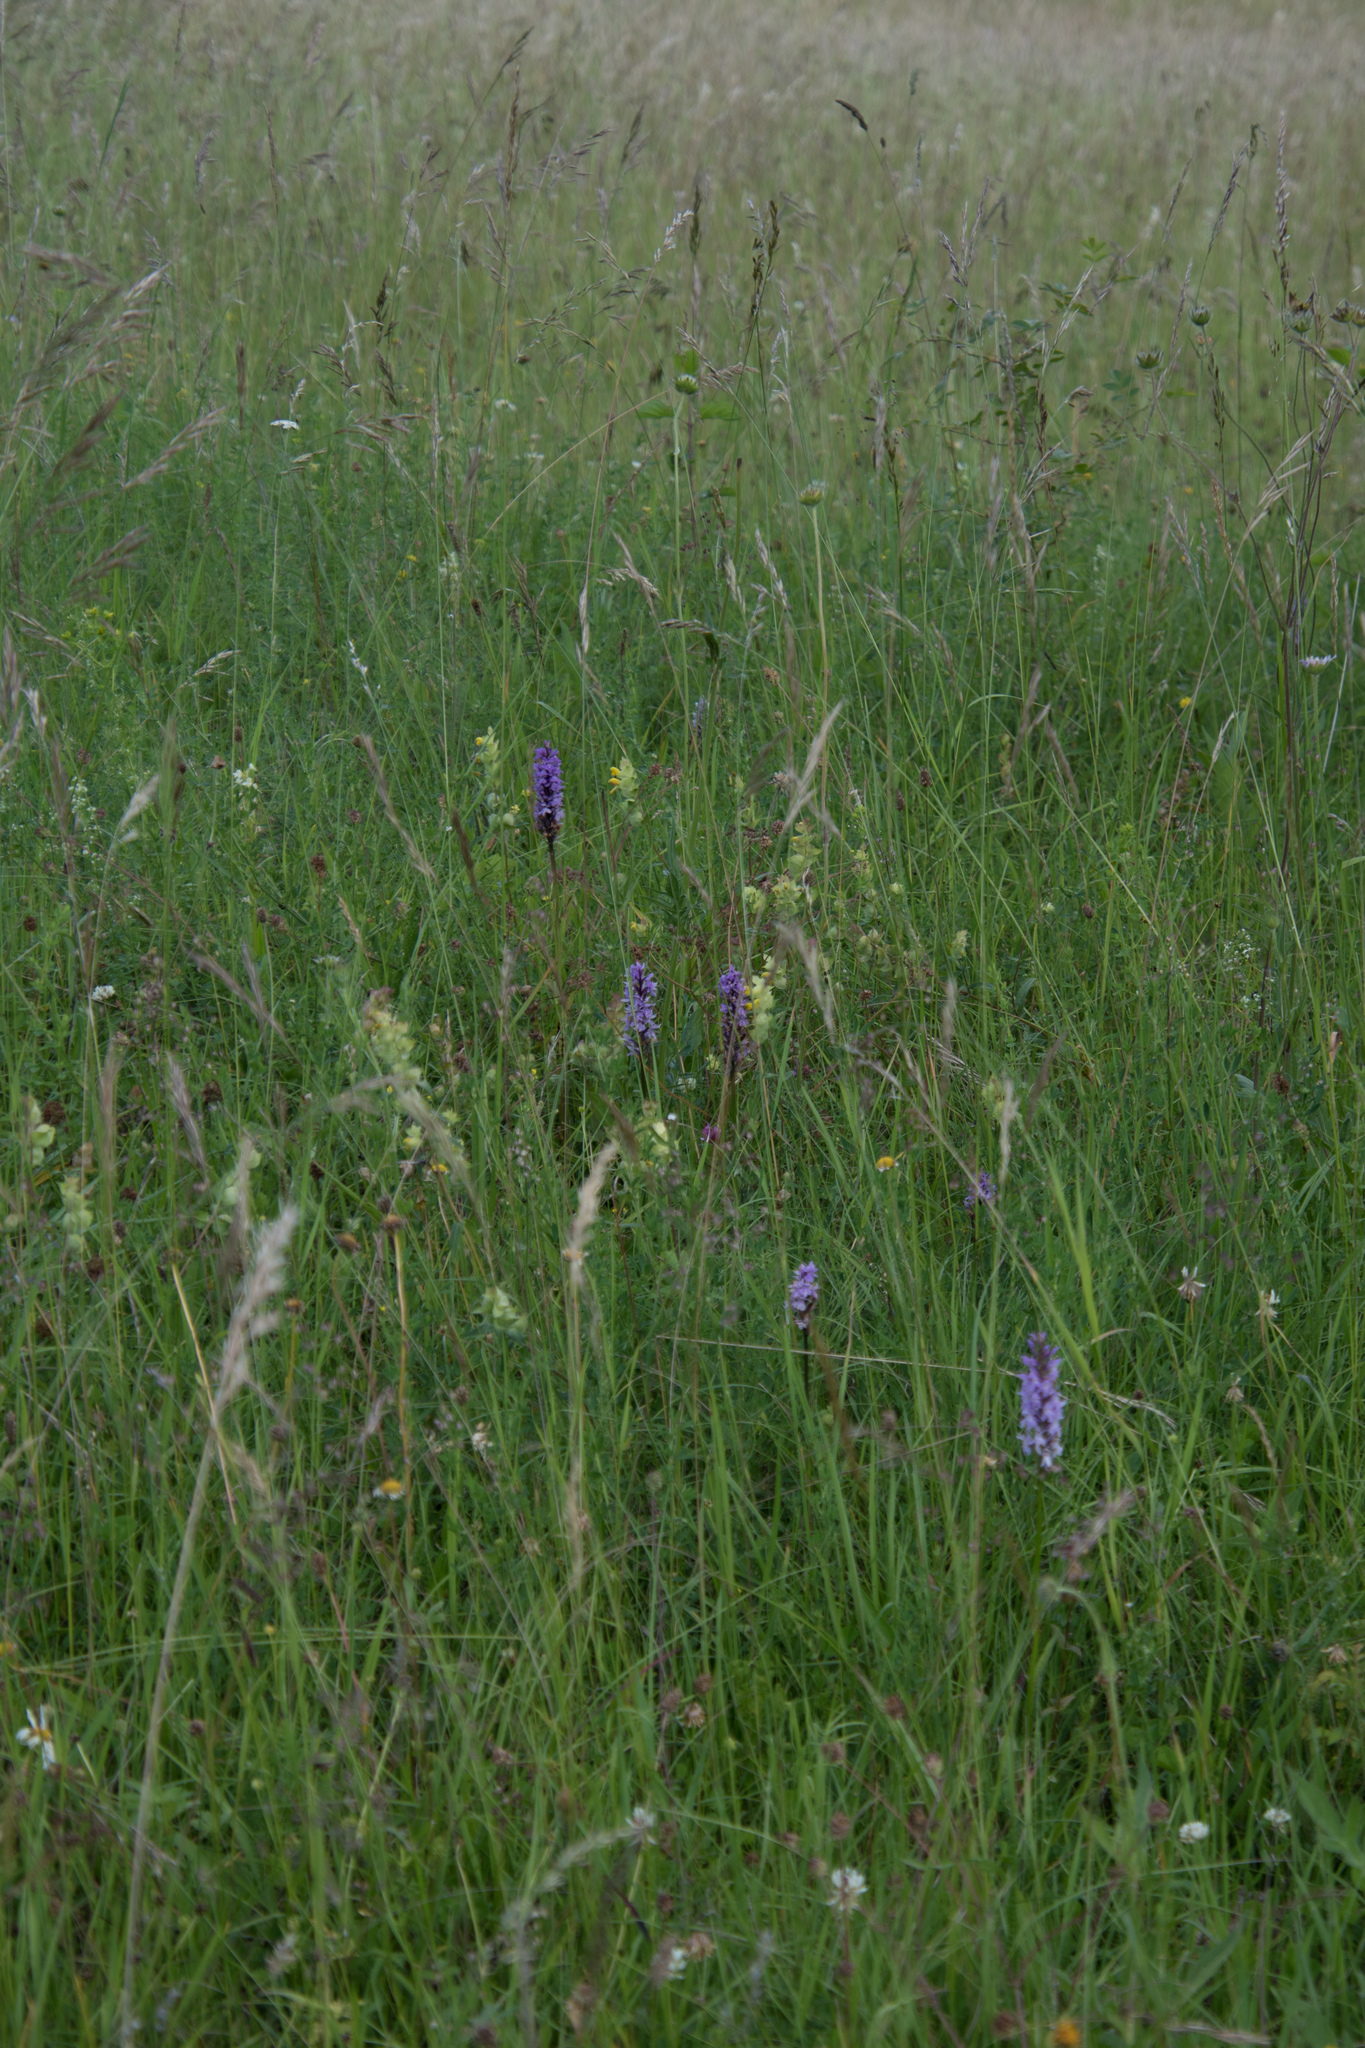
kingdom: Plantae
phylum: Tracheophyta
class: Liliopsida
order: Asparagales
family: Orchidaceae
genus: Dactylorhiza
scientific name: Dactylorhiza maculata
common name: Heath spotted-orchid
